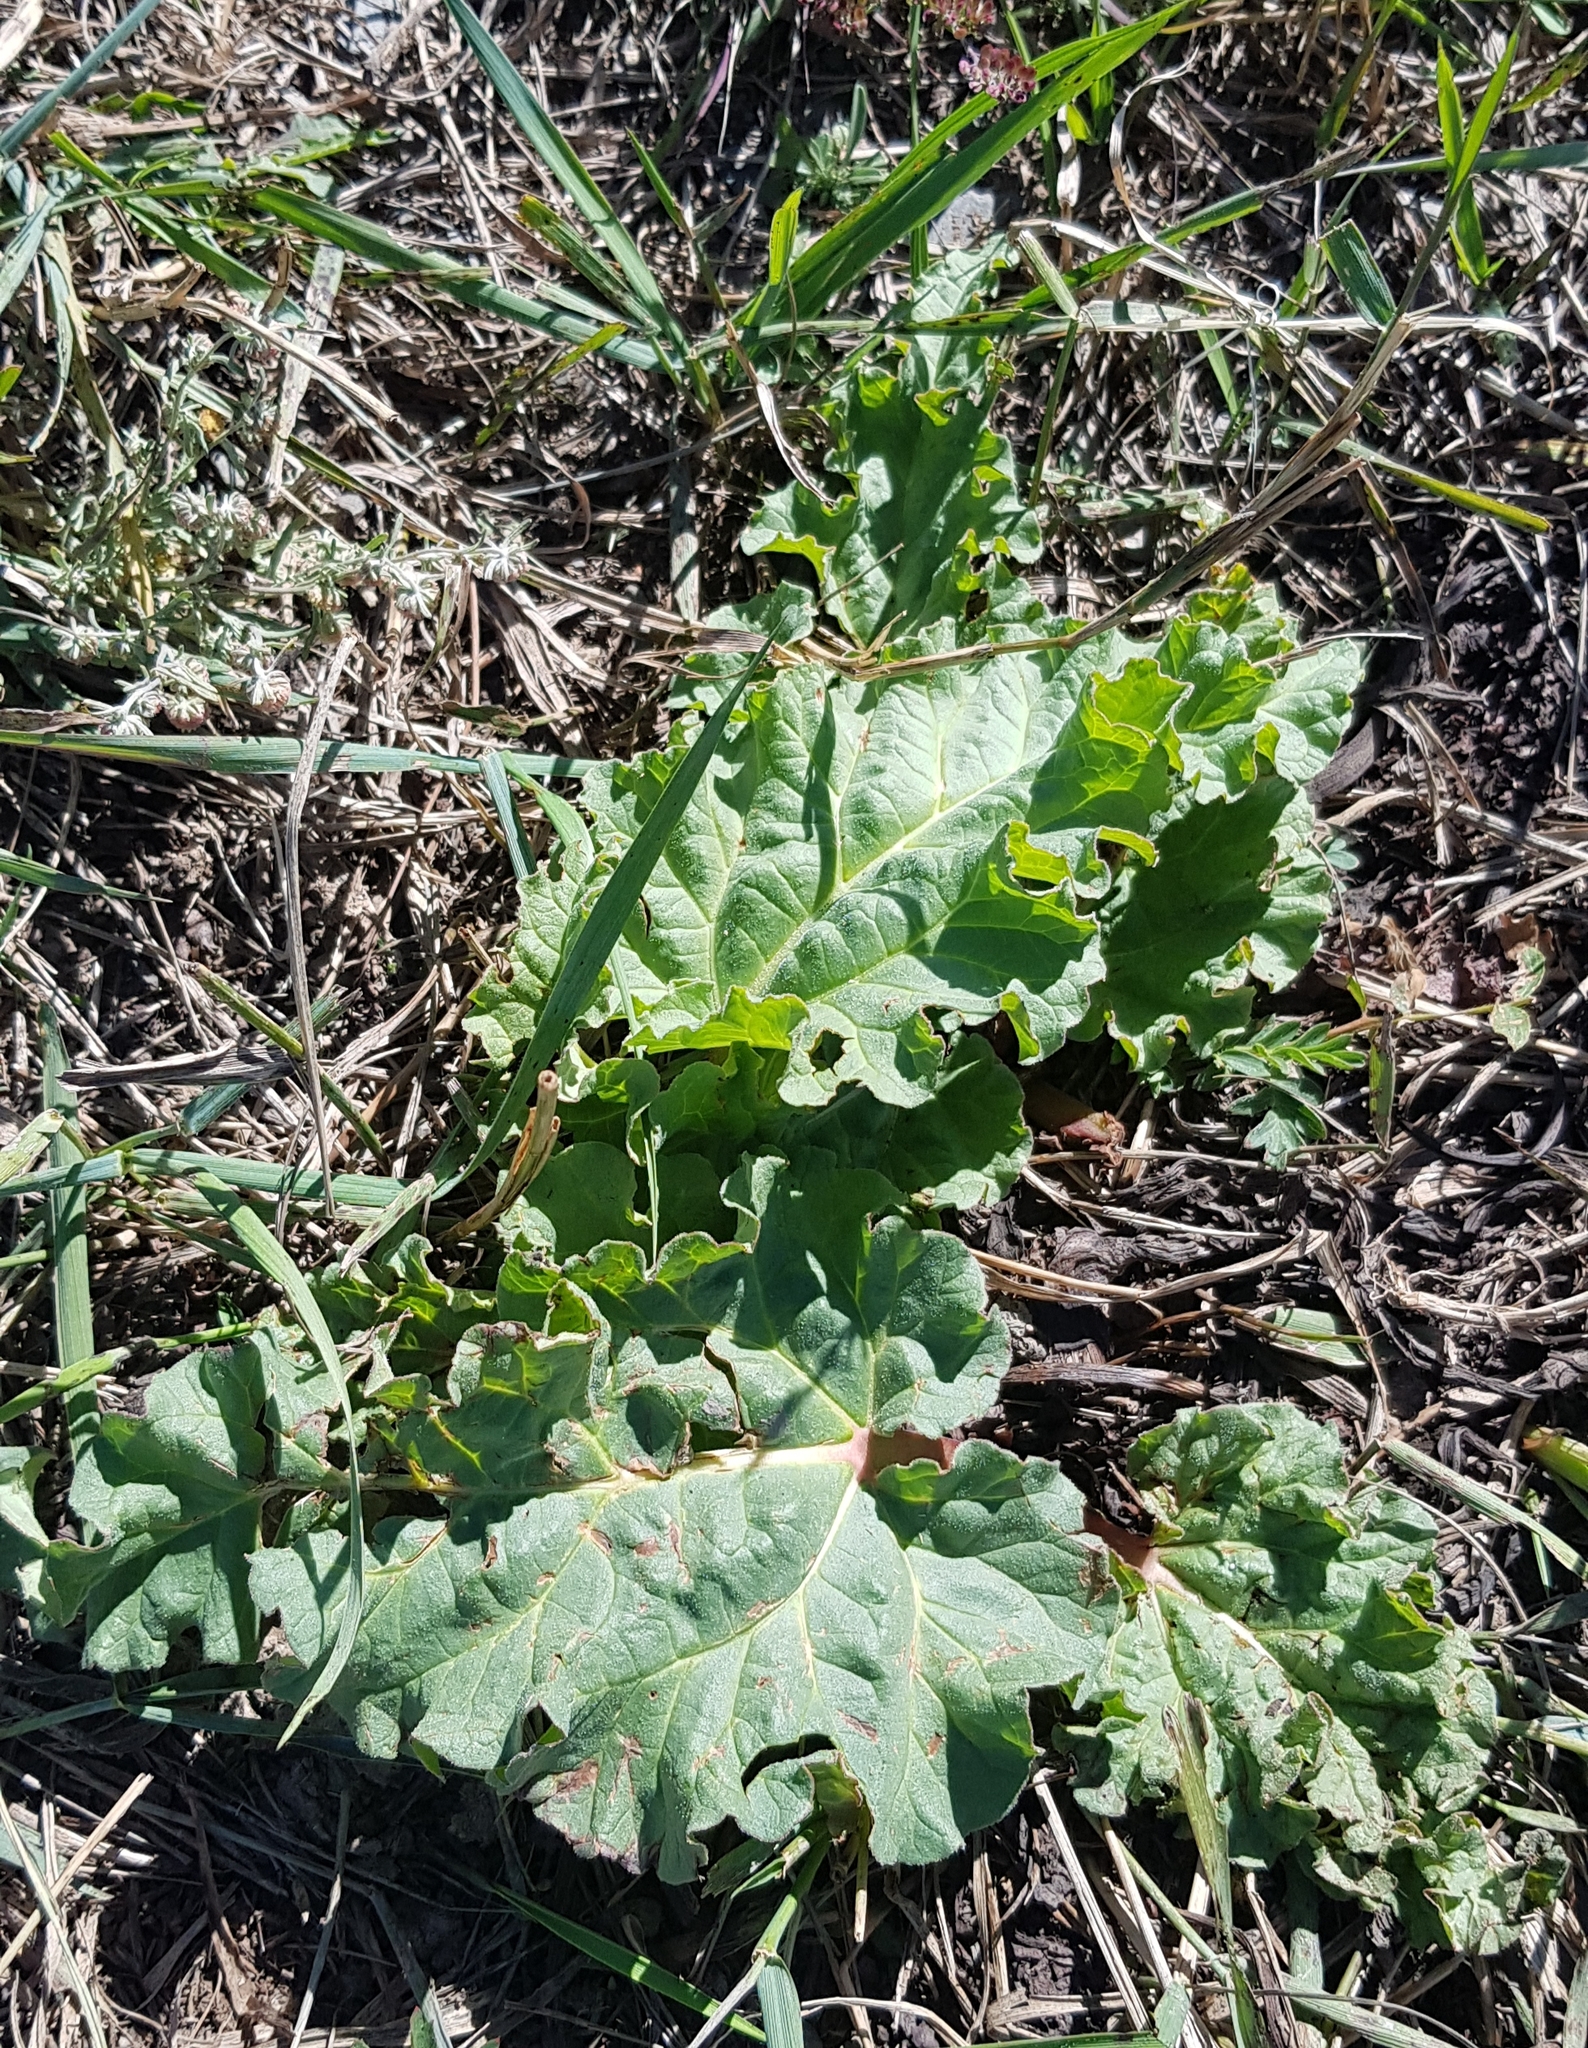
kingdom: Plantae
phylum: Tracheophyta
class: Magnoliopsida
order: Caryophyllales
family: Polygonaceae
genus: Rheum
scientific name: Rheum rhabarbarum
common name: Garden rhubarb
